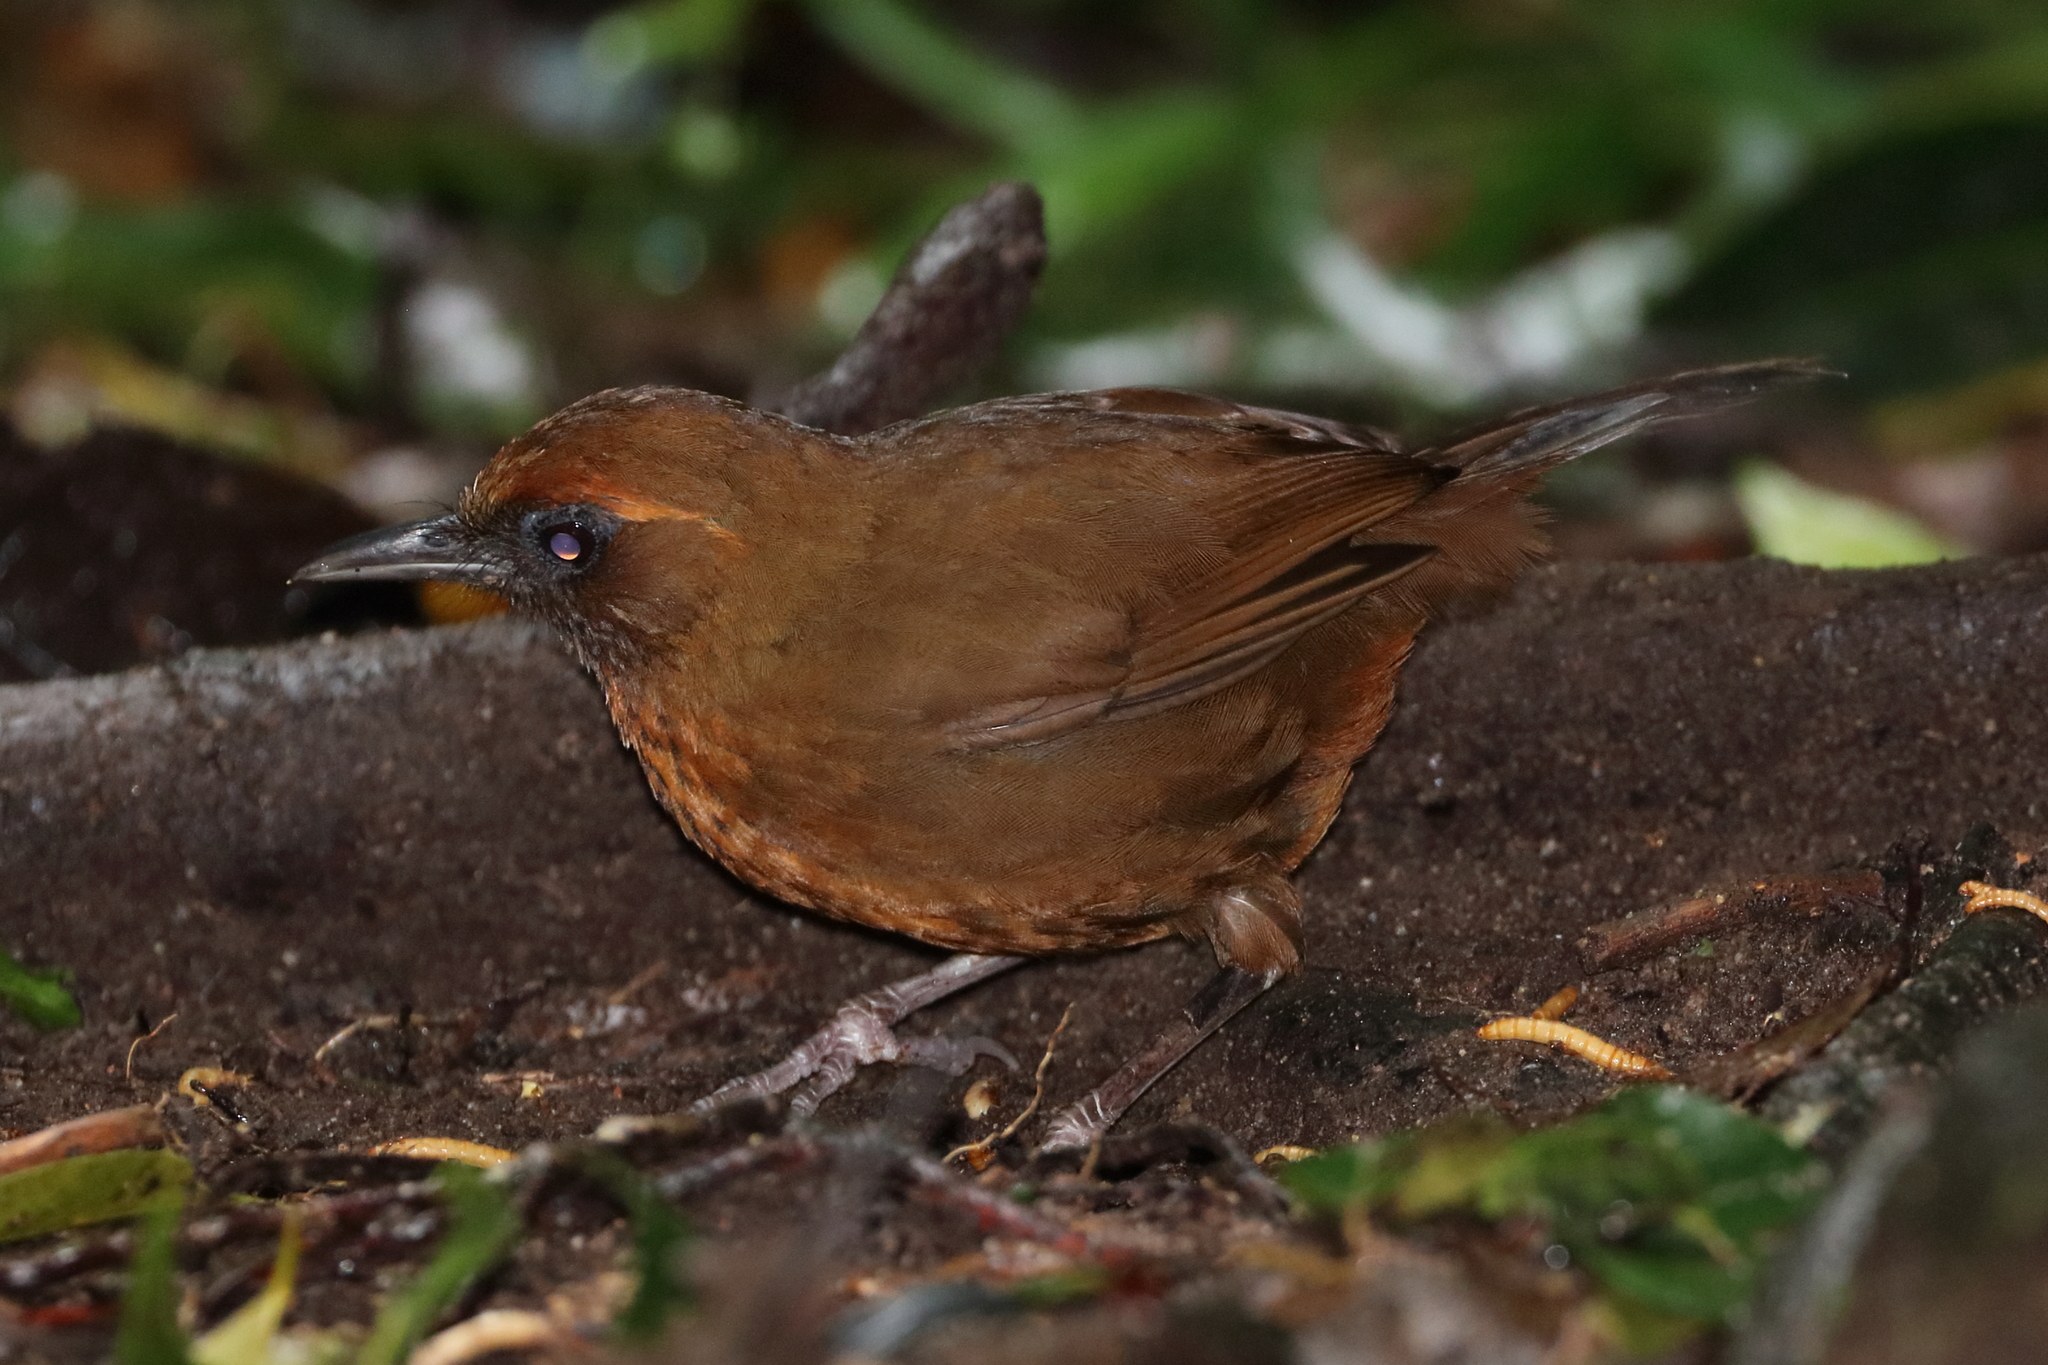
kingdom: Animalia
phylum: Chordata
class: Aves
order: Passeriformes
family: Leiothrichidae
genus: Garrulax
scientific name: Garrulax annamensis
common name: Orange-breasted laughingthrush
